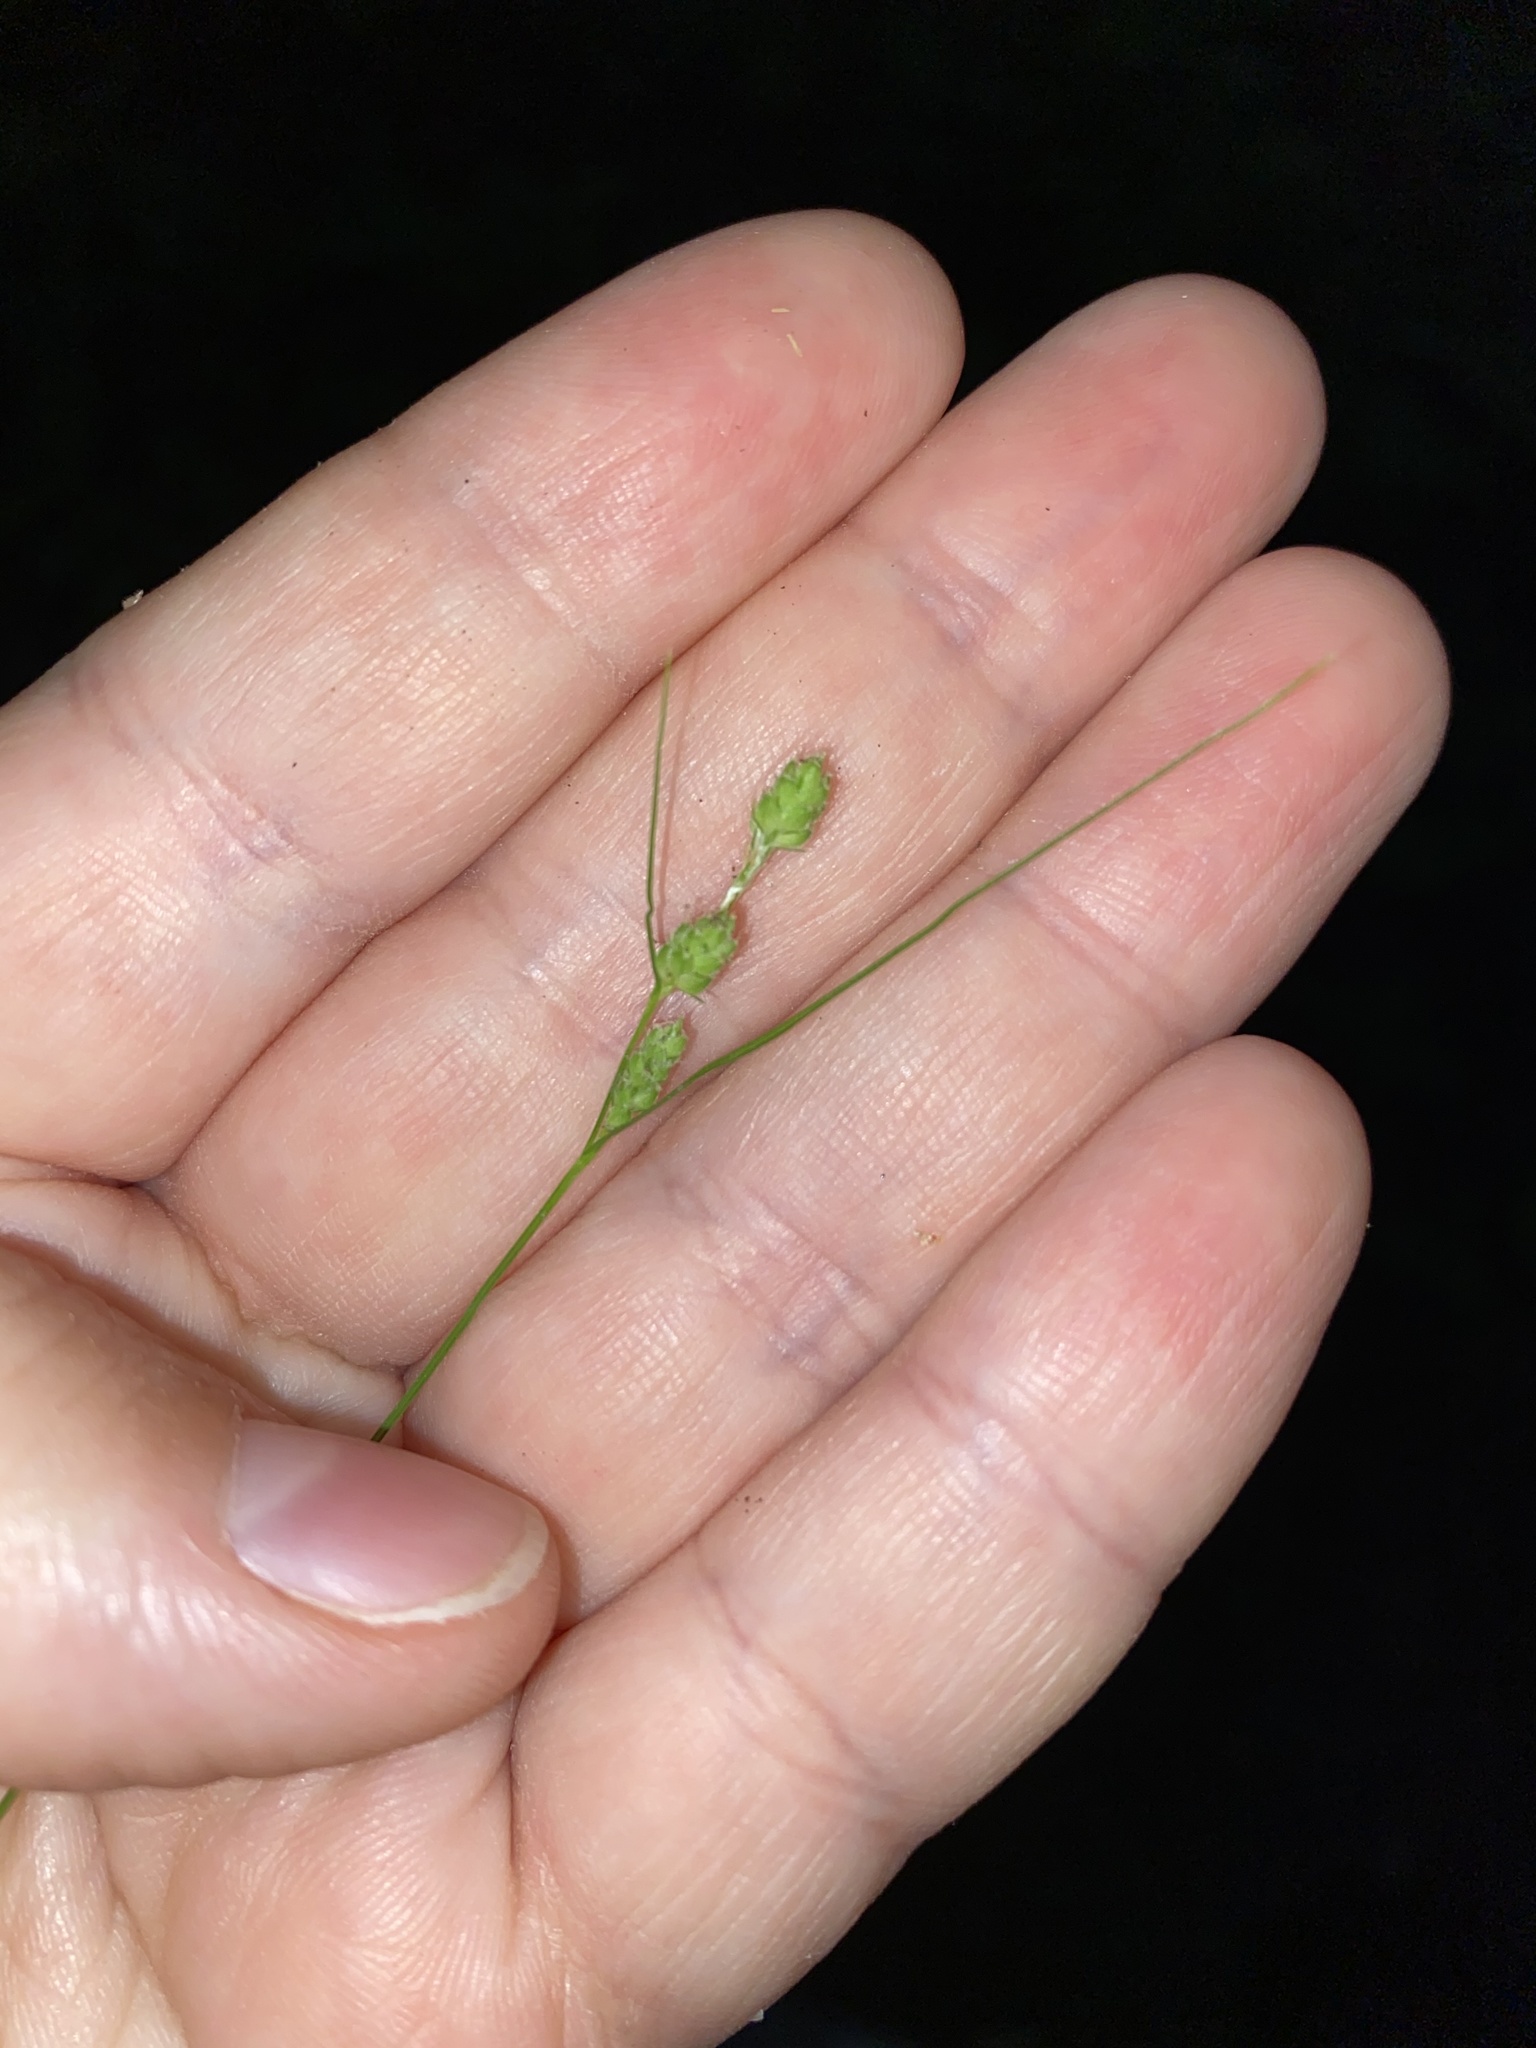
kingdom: Plantae
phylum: Tracheophyta
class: Liliopsida
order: Poales
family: Cyperaceae
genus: Carex
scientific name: Carex swanii
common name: Downy green sedge
